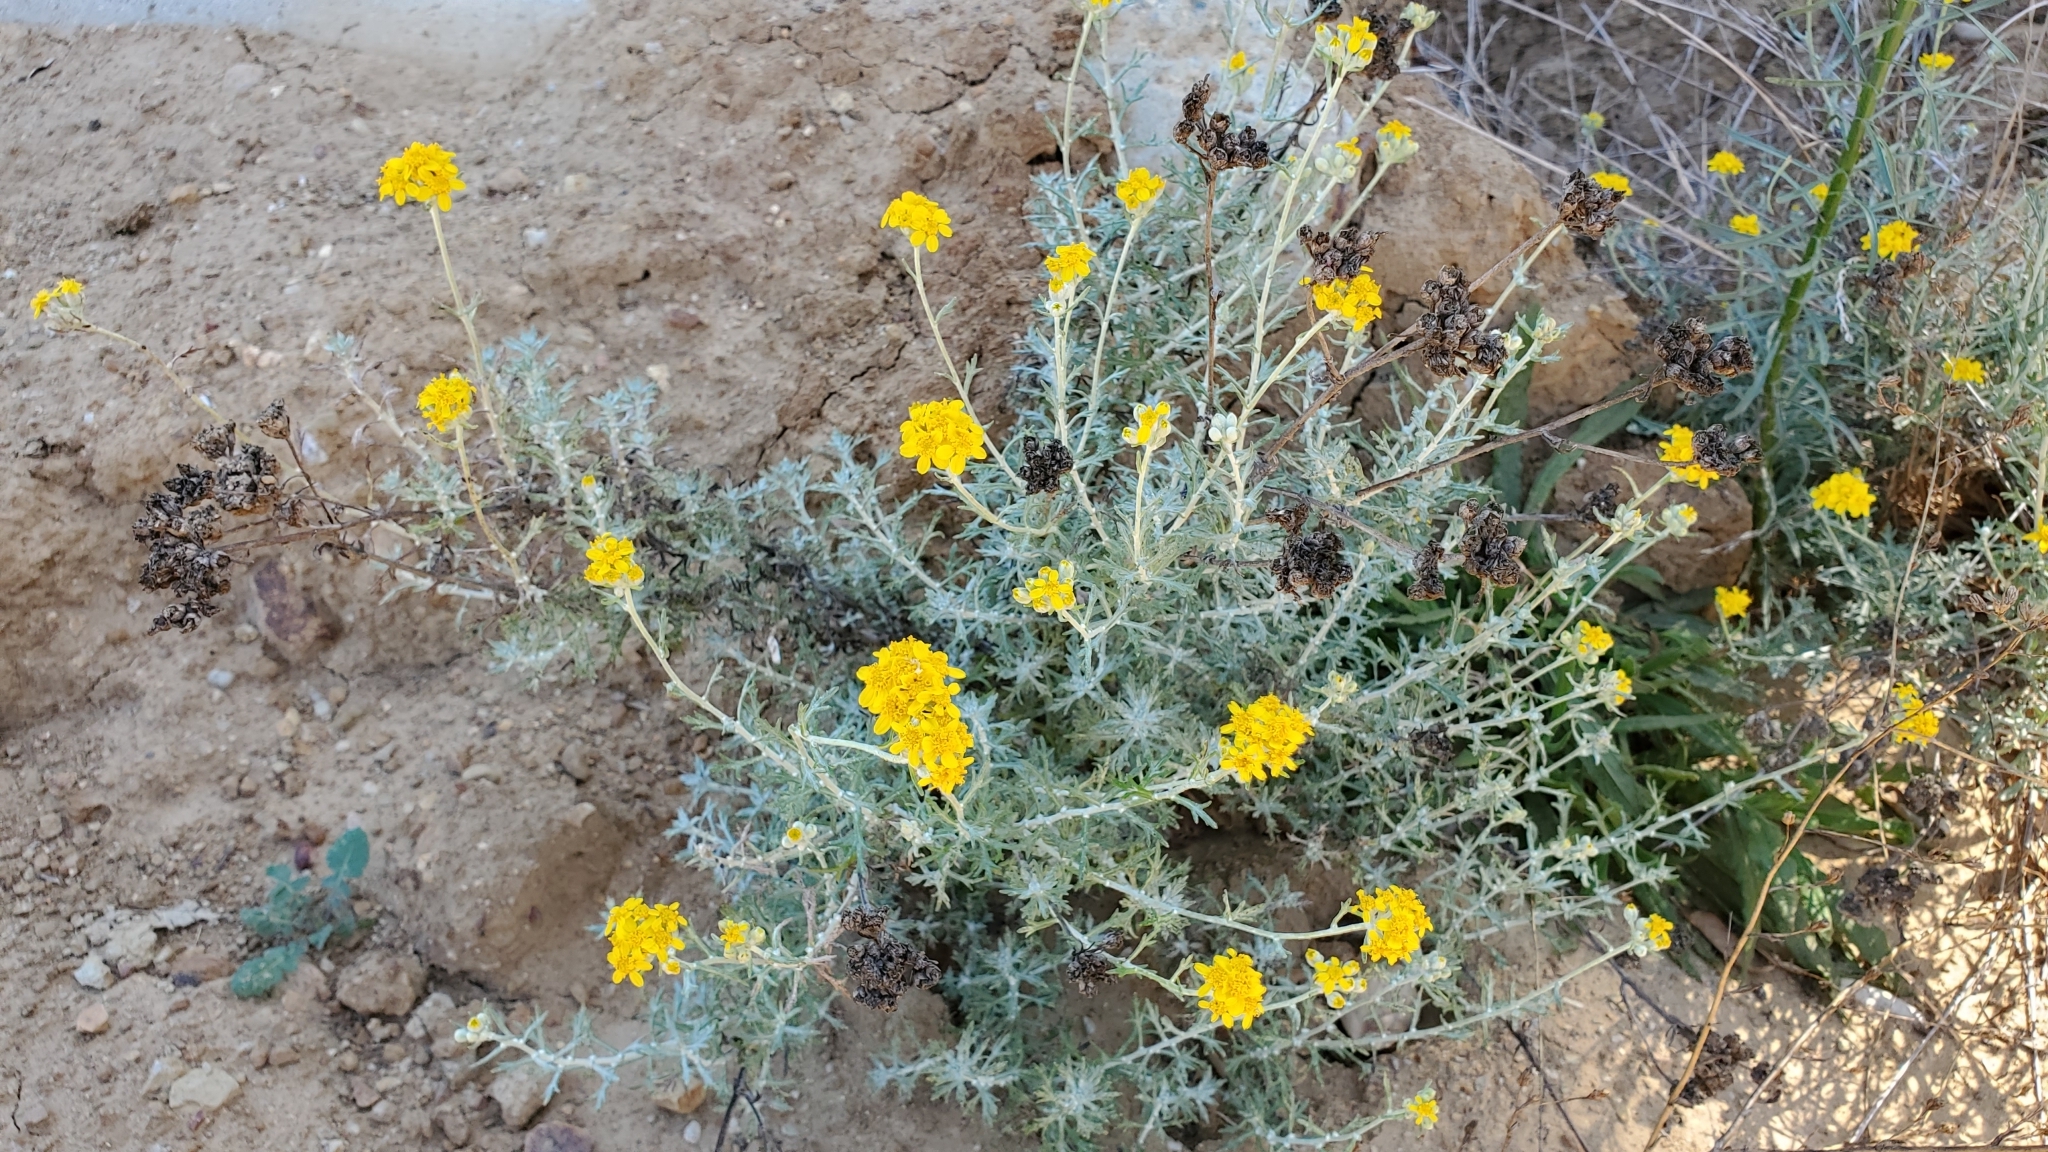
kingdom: Plantae
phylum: Tracheophyta
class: Magnoliopsida
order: Asterales
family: Asteraceae
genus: Eriophyllum
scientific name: Eriophyllum confertiflorum
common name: Golden-yarrow
